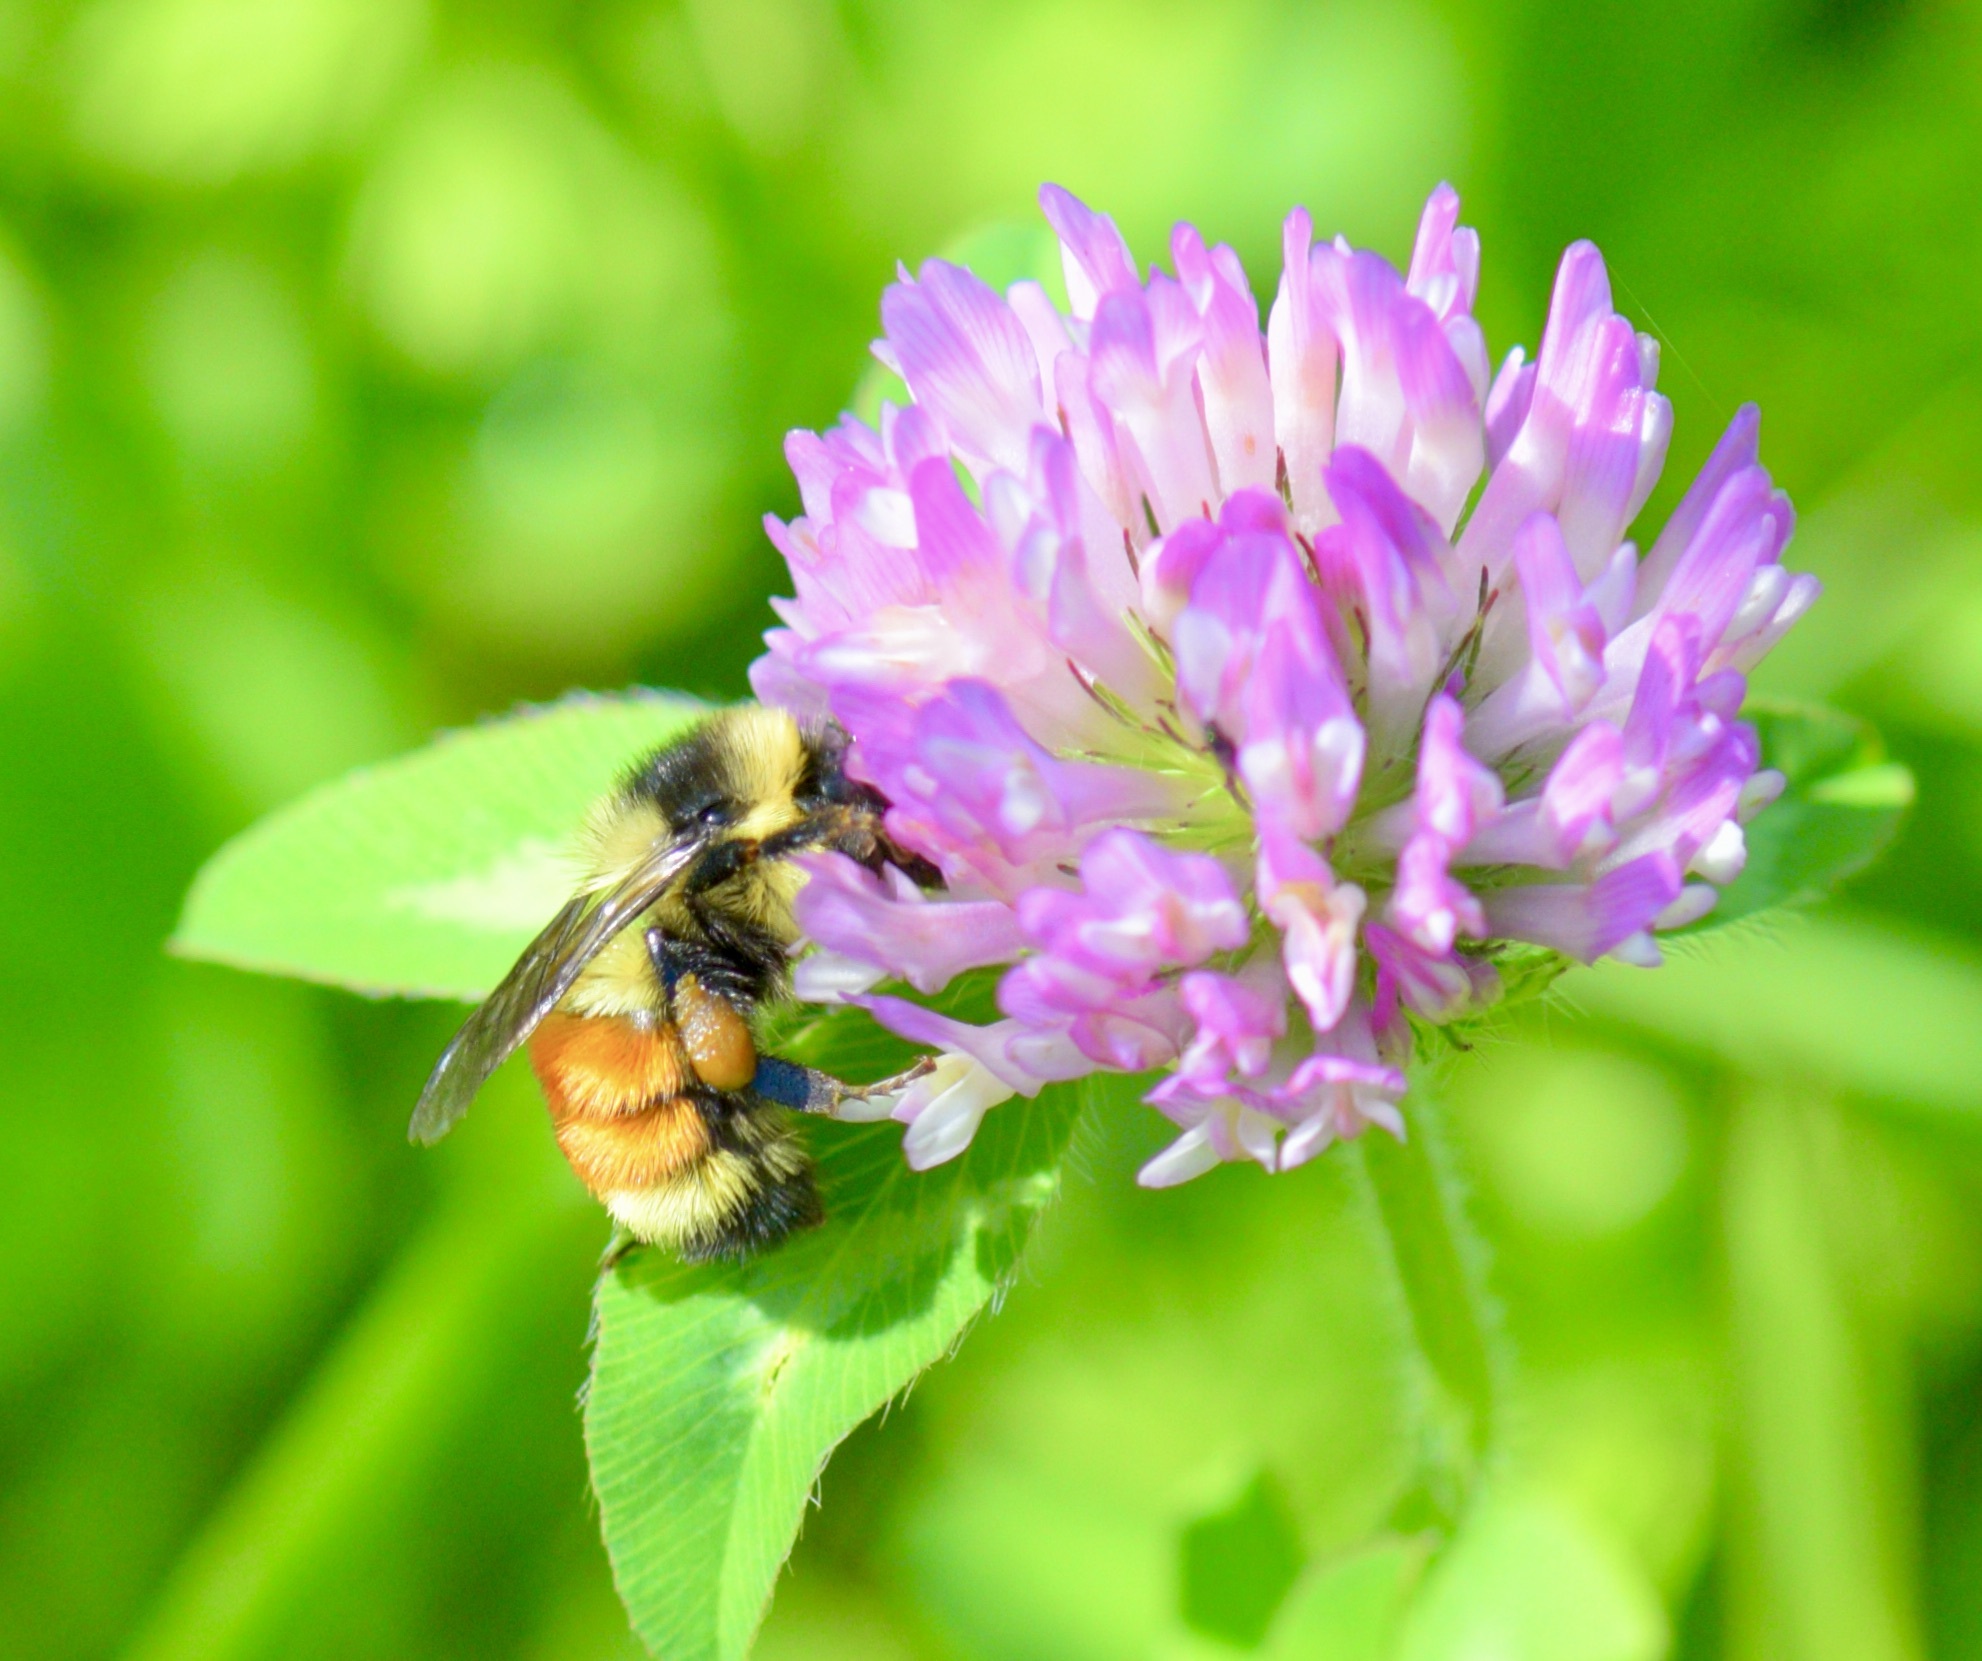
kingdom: Animalia
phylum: Arthropoda
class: Insecta
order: Hymenoptera
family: Apidae
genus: Bombus
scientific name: Bombus ternarius
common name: Tri-colored bumble bee
